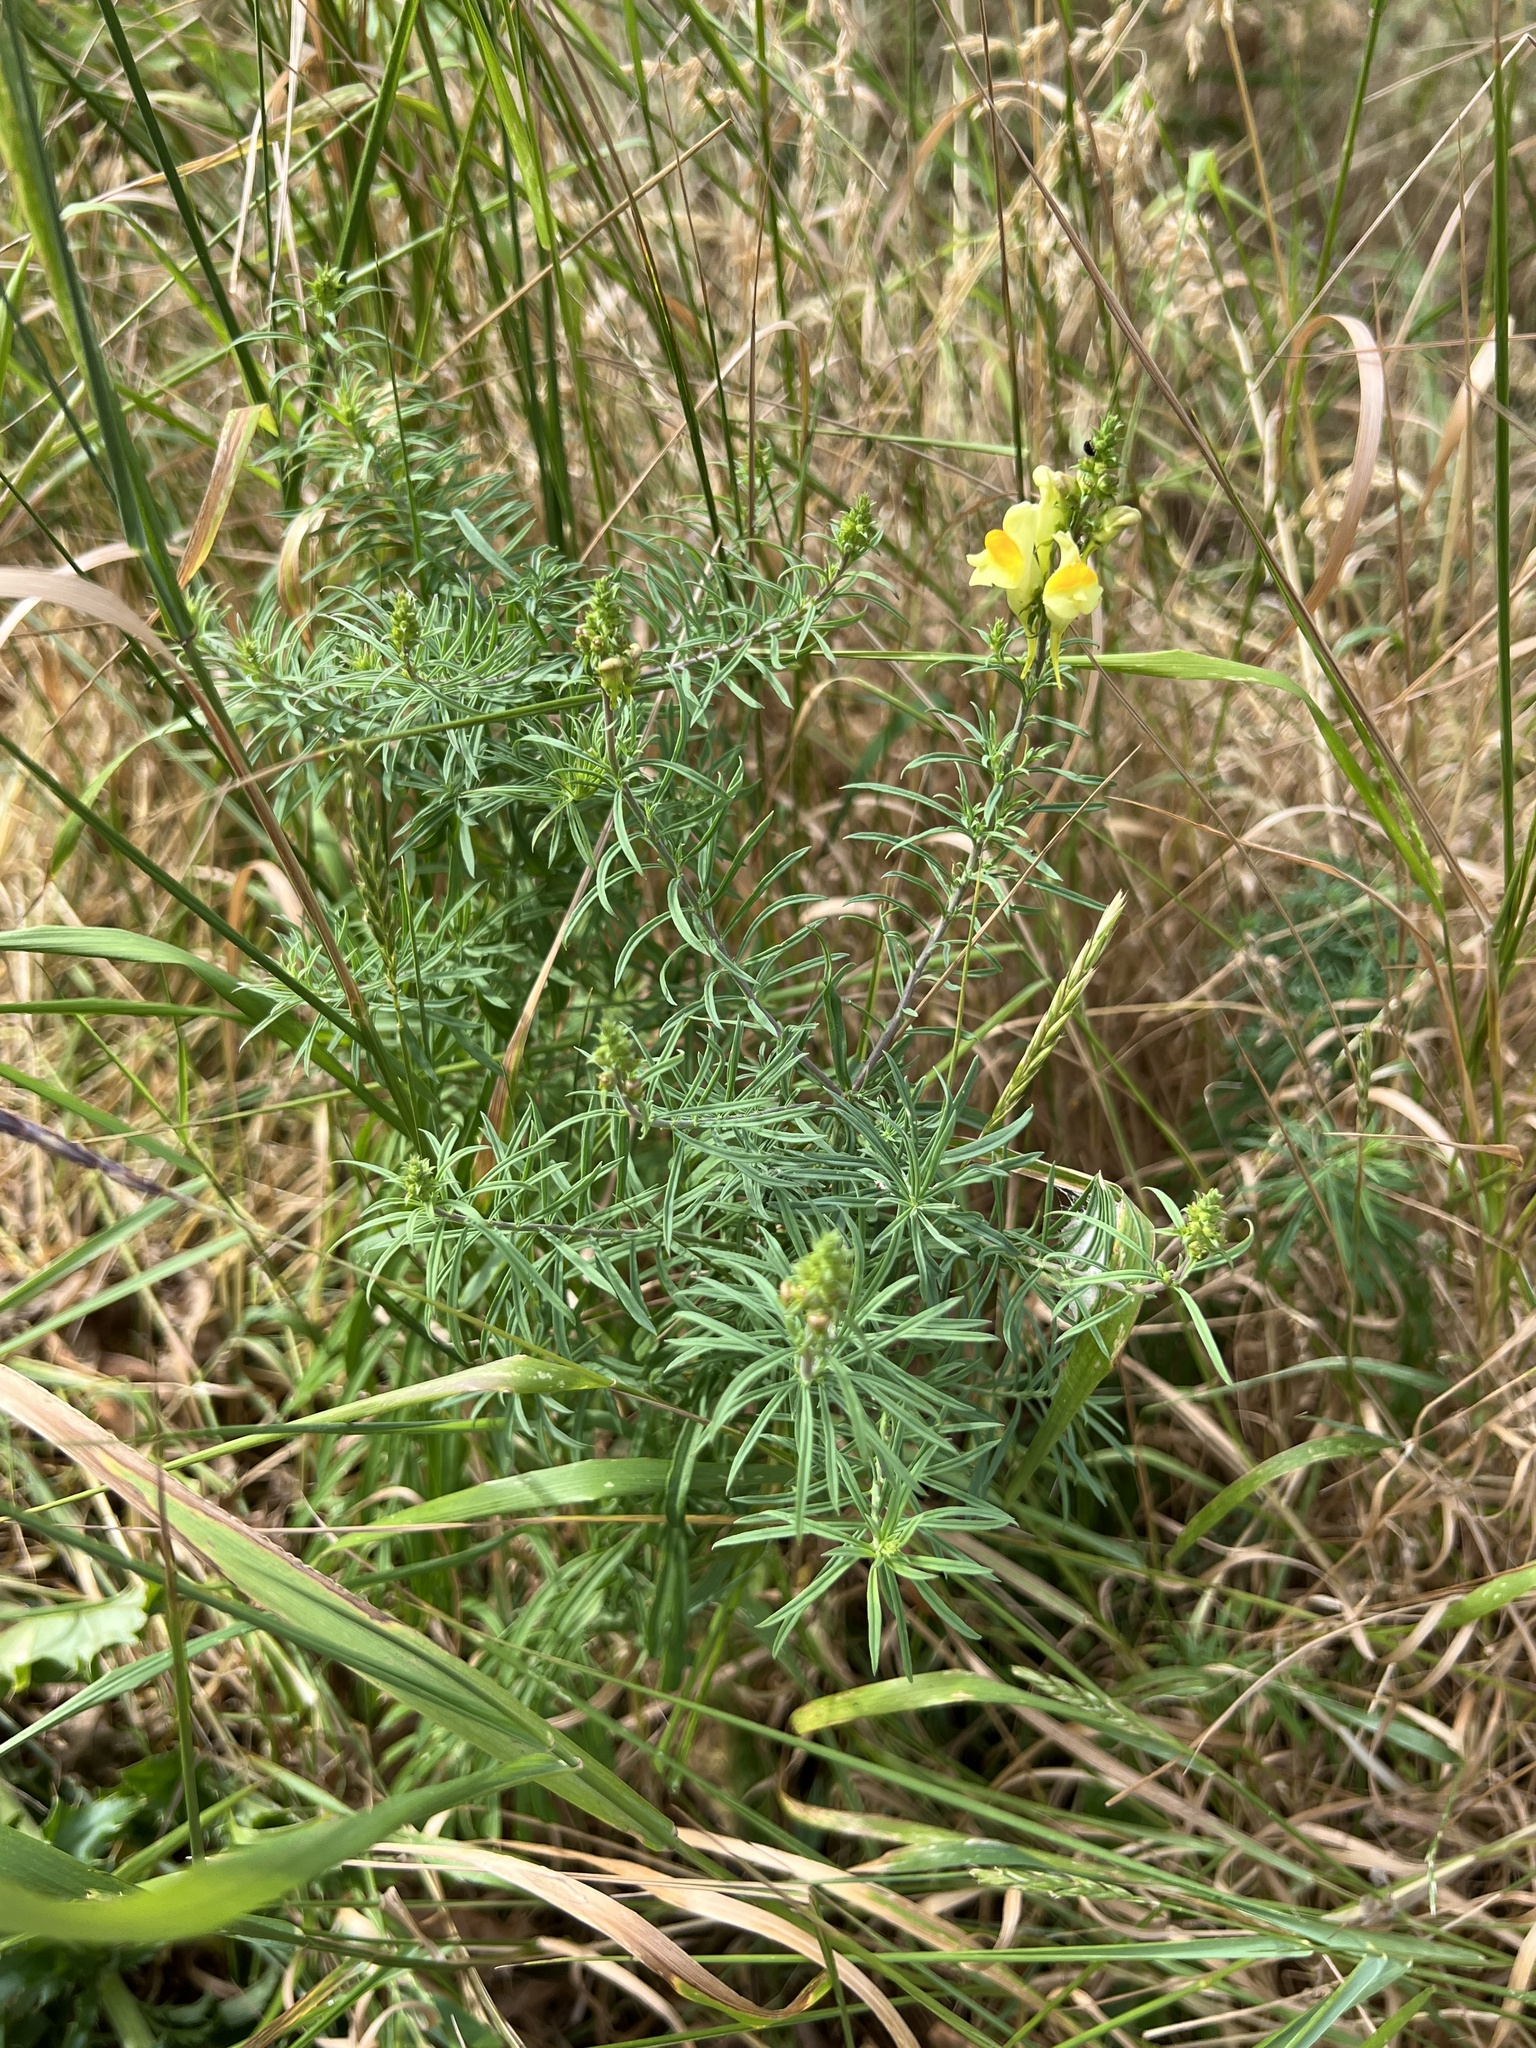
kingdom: Plantae
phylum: Tracheophyta
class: Magnoliopsida
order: Lamiales
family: Plantaginaceae
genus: Linaria
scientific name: Linaria vulgaris
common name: Butter and eggs
